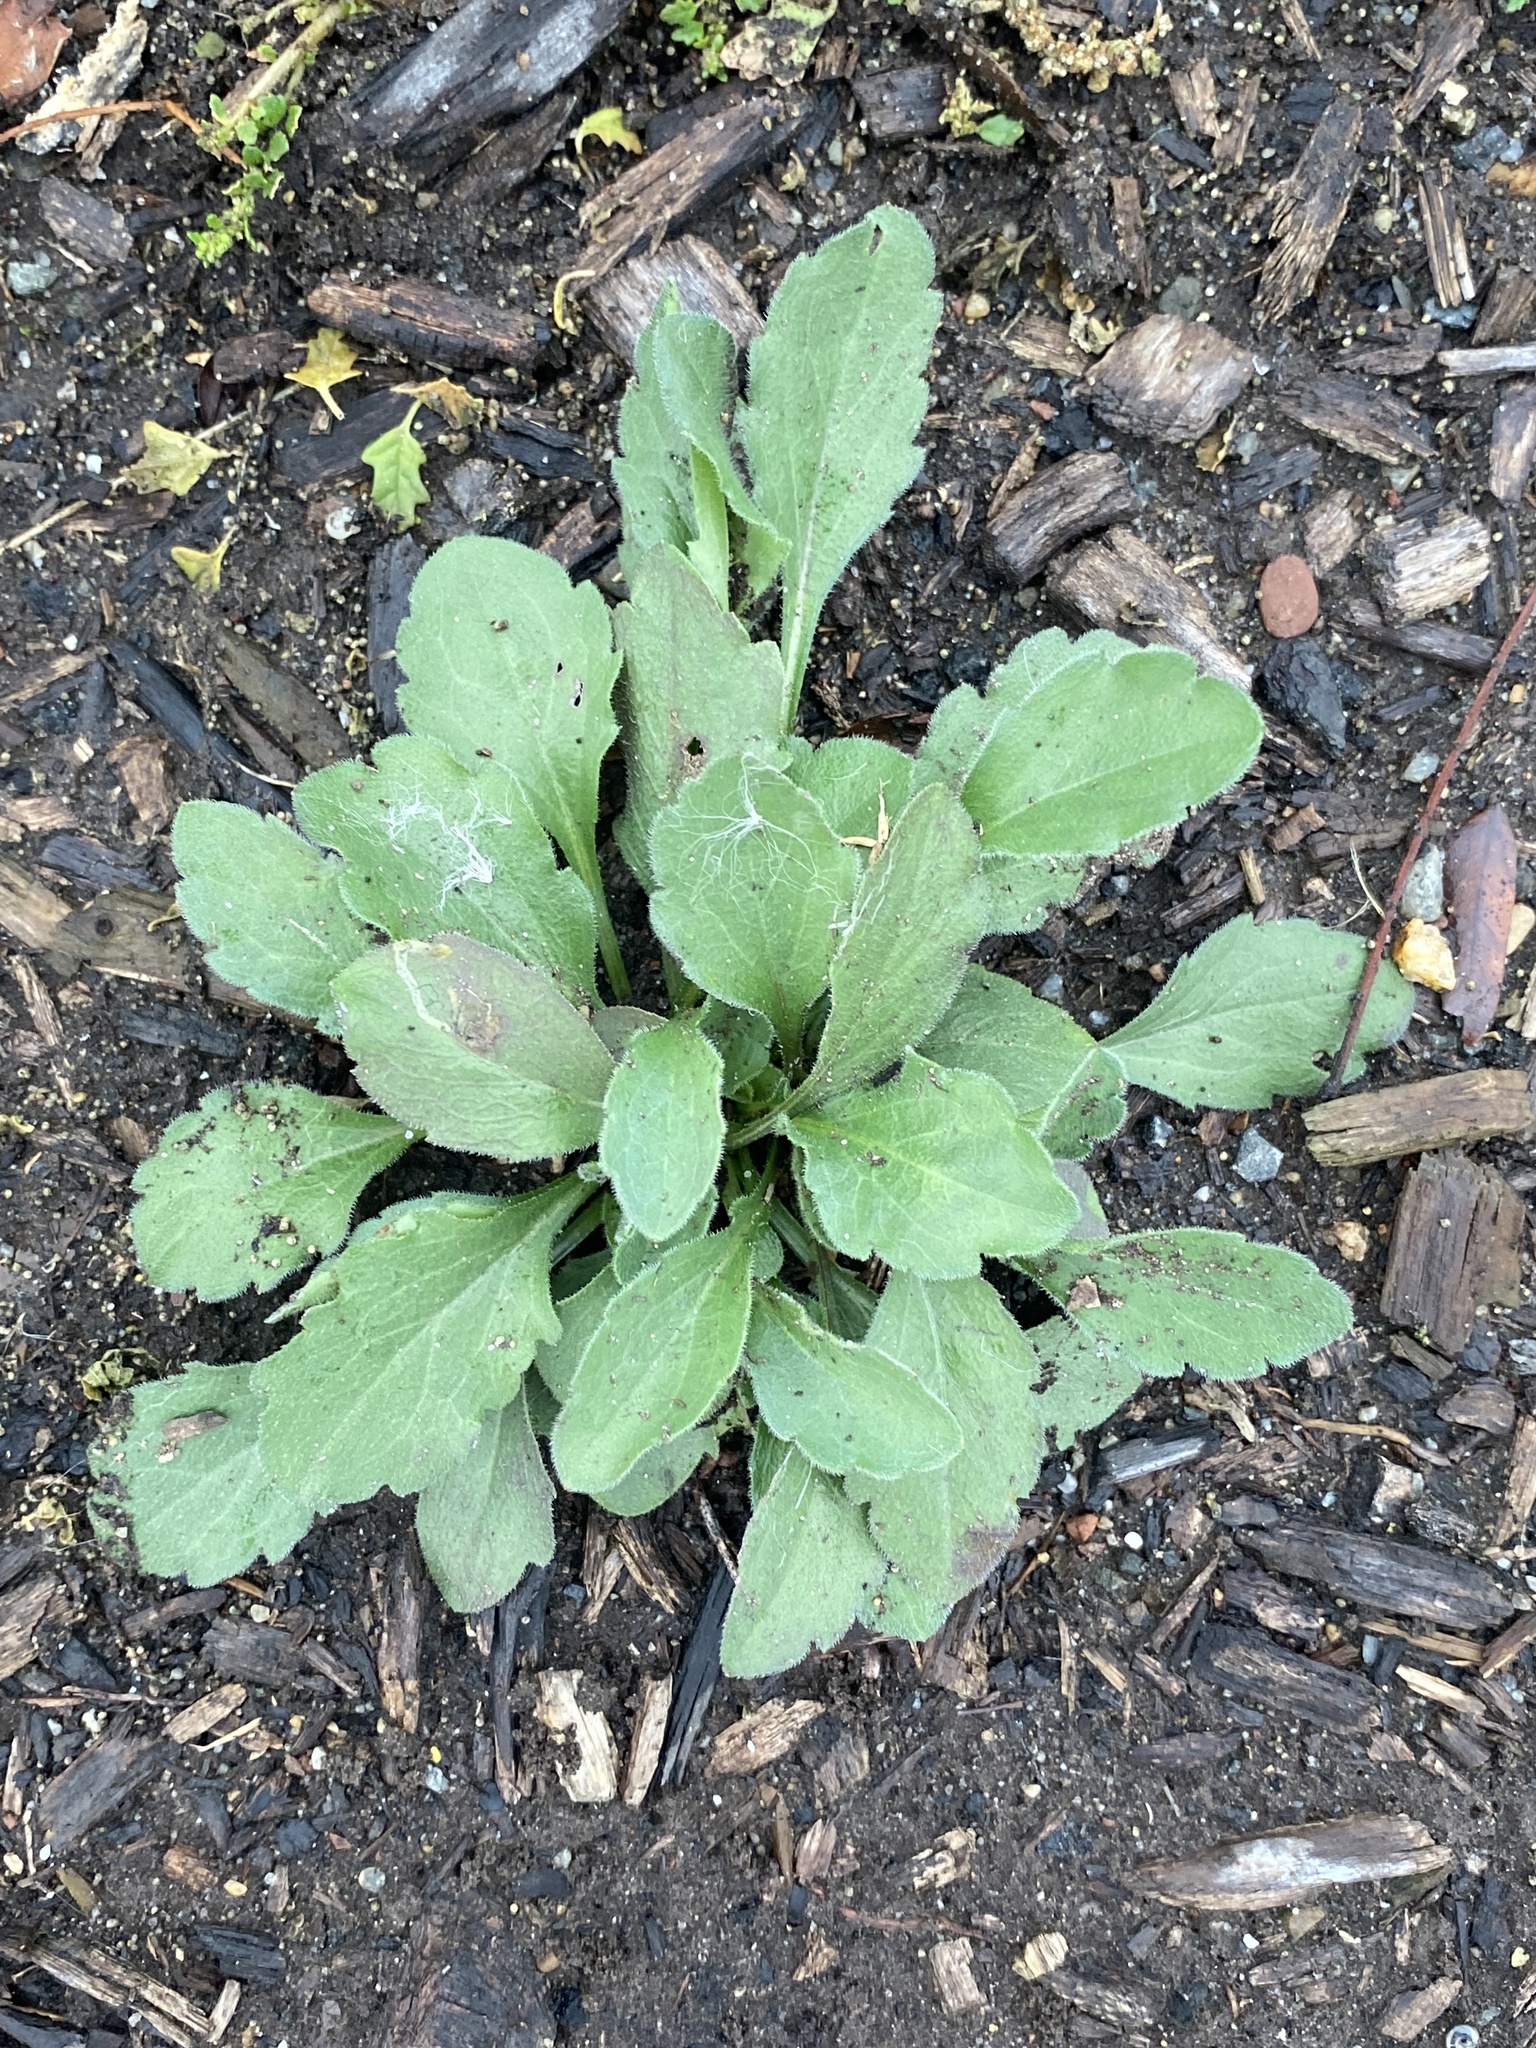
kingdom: Plantae
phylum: Tracheophyta
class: Magnoliopsida
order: Asterales
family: Asteraceae
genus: Erigeron
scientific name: Erigeron canadensis
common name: Canadian fleabane
